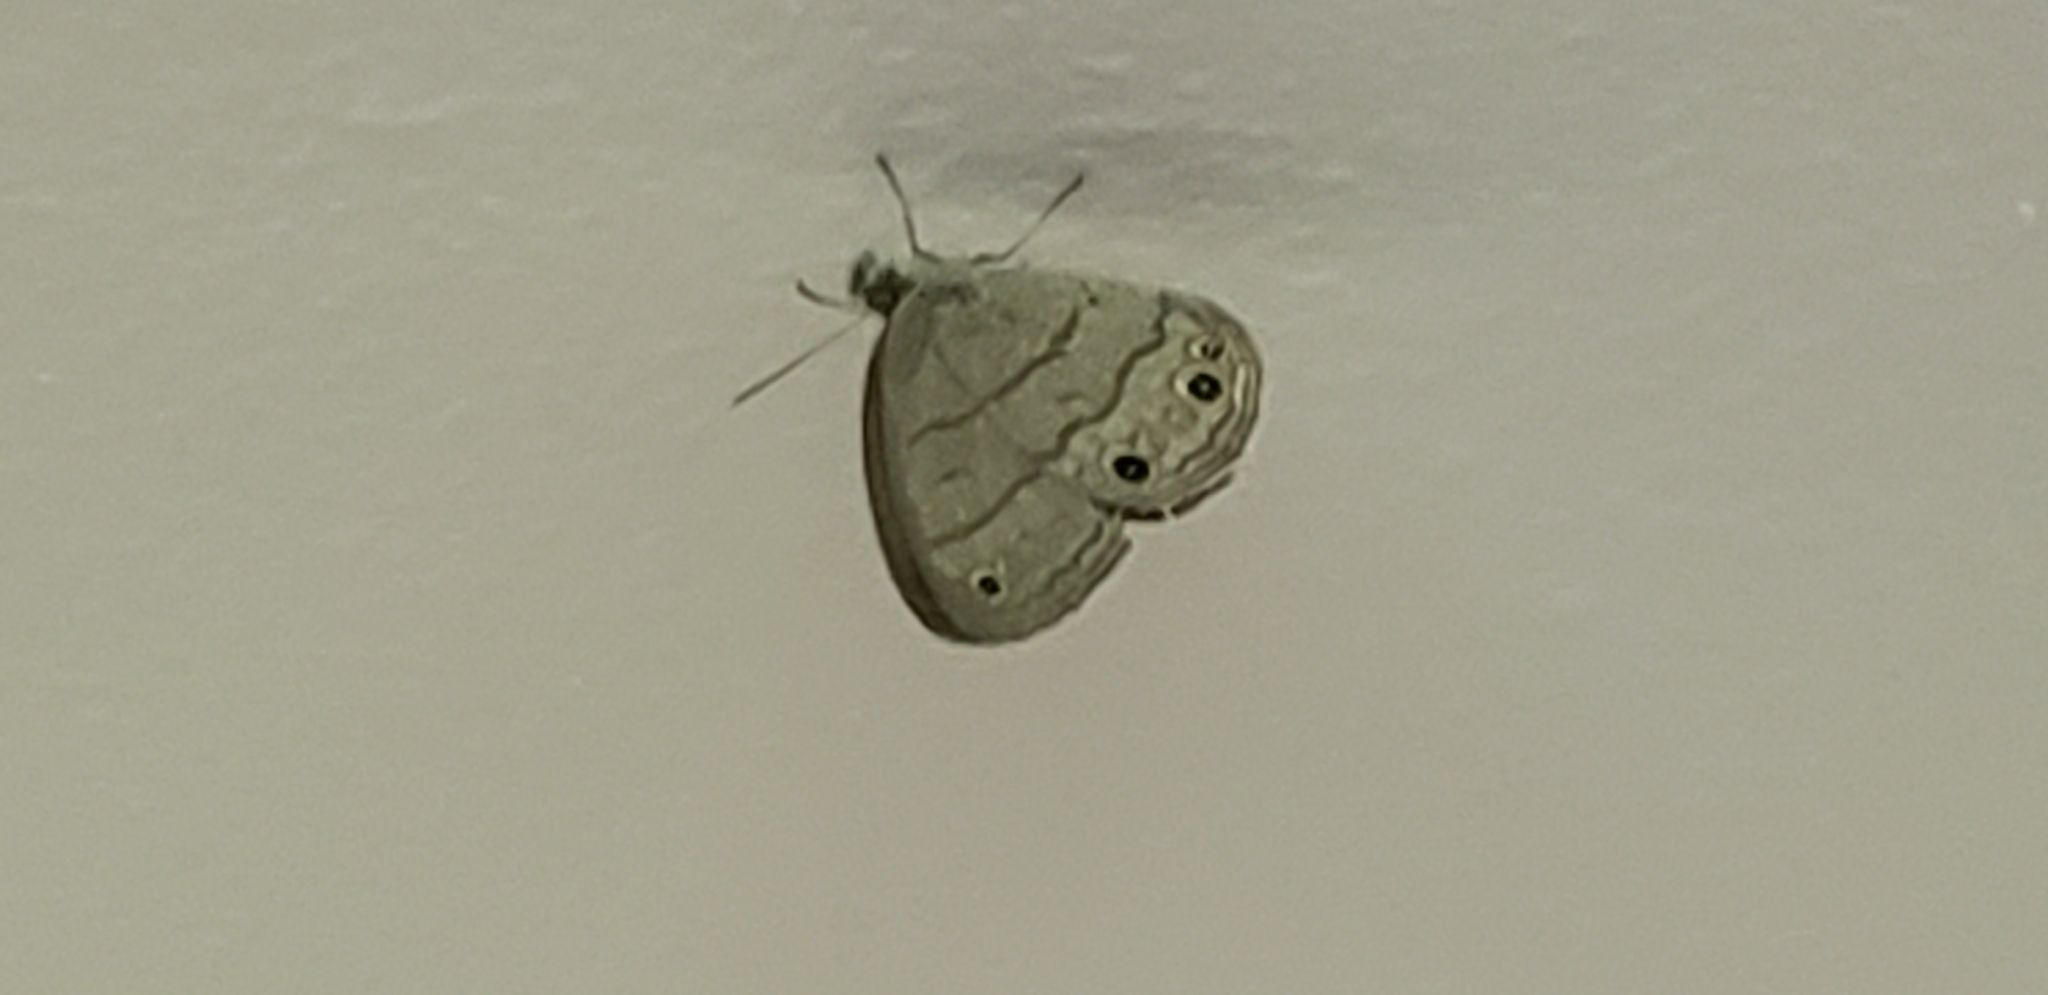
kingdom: Animalia
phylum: Arthropoda
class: Insecta
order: Lepidoptera
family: Nymphalidae
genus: Hermeuptychia
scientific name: Hermeuptychia hermes
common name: Hermes satyr
